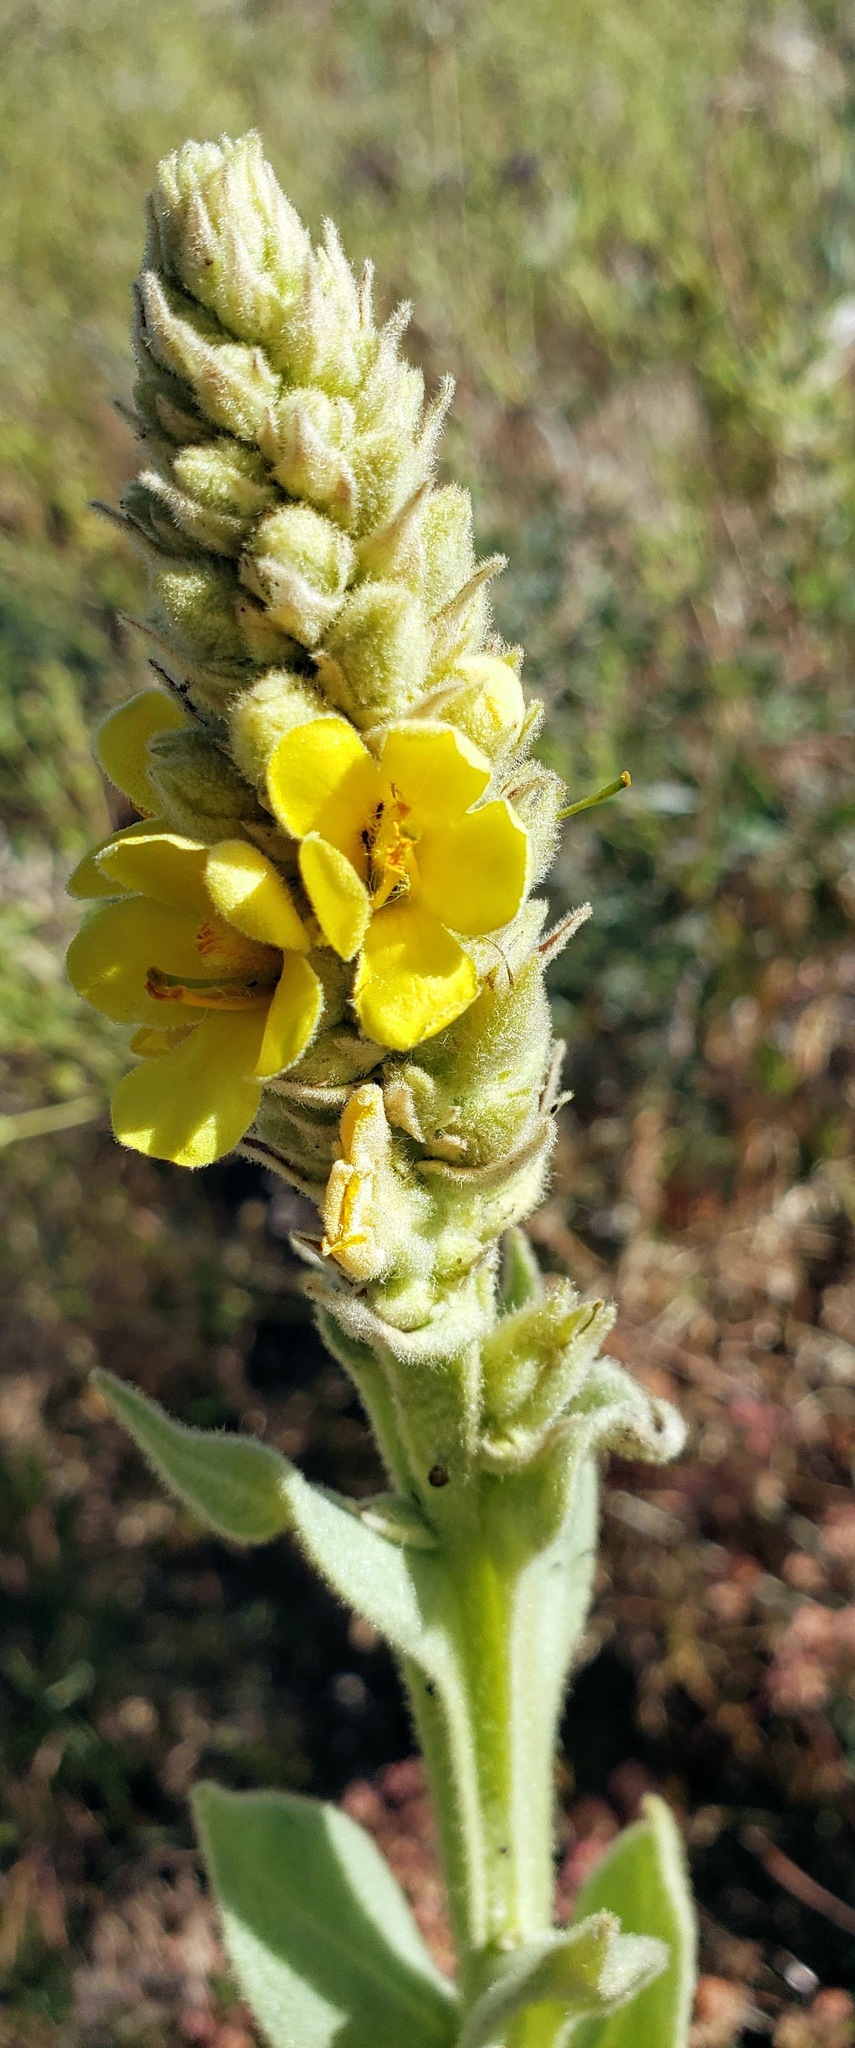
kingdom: Plantae
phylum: Tracheophyta
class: Magnoliopsida
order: Lamiales
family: Scrophulariaceae
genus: Verbascum
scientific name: Verbascum thapsus
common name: Common mullein
